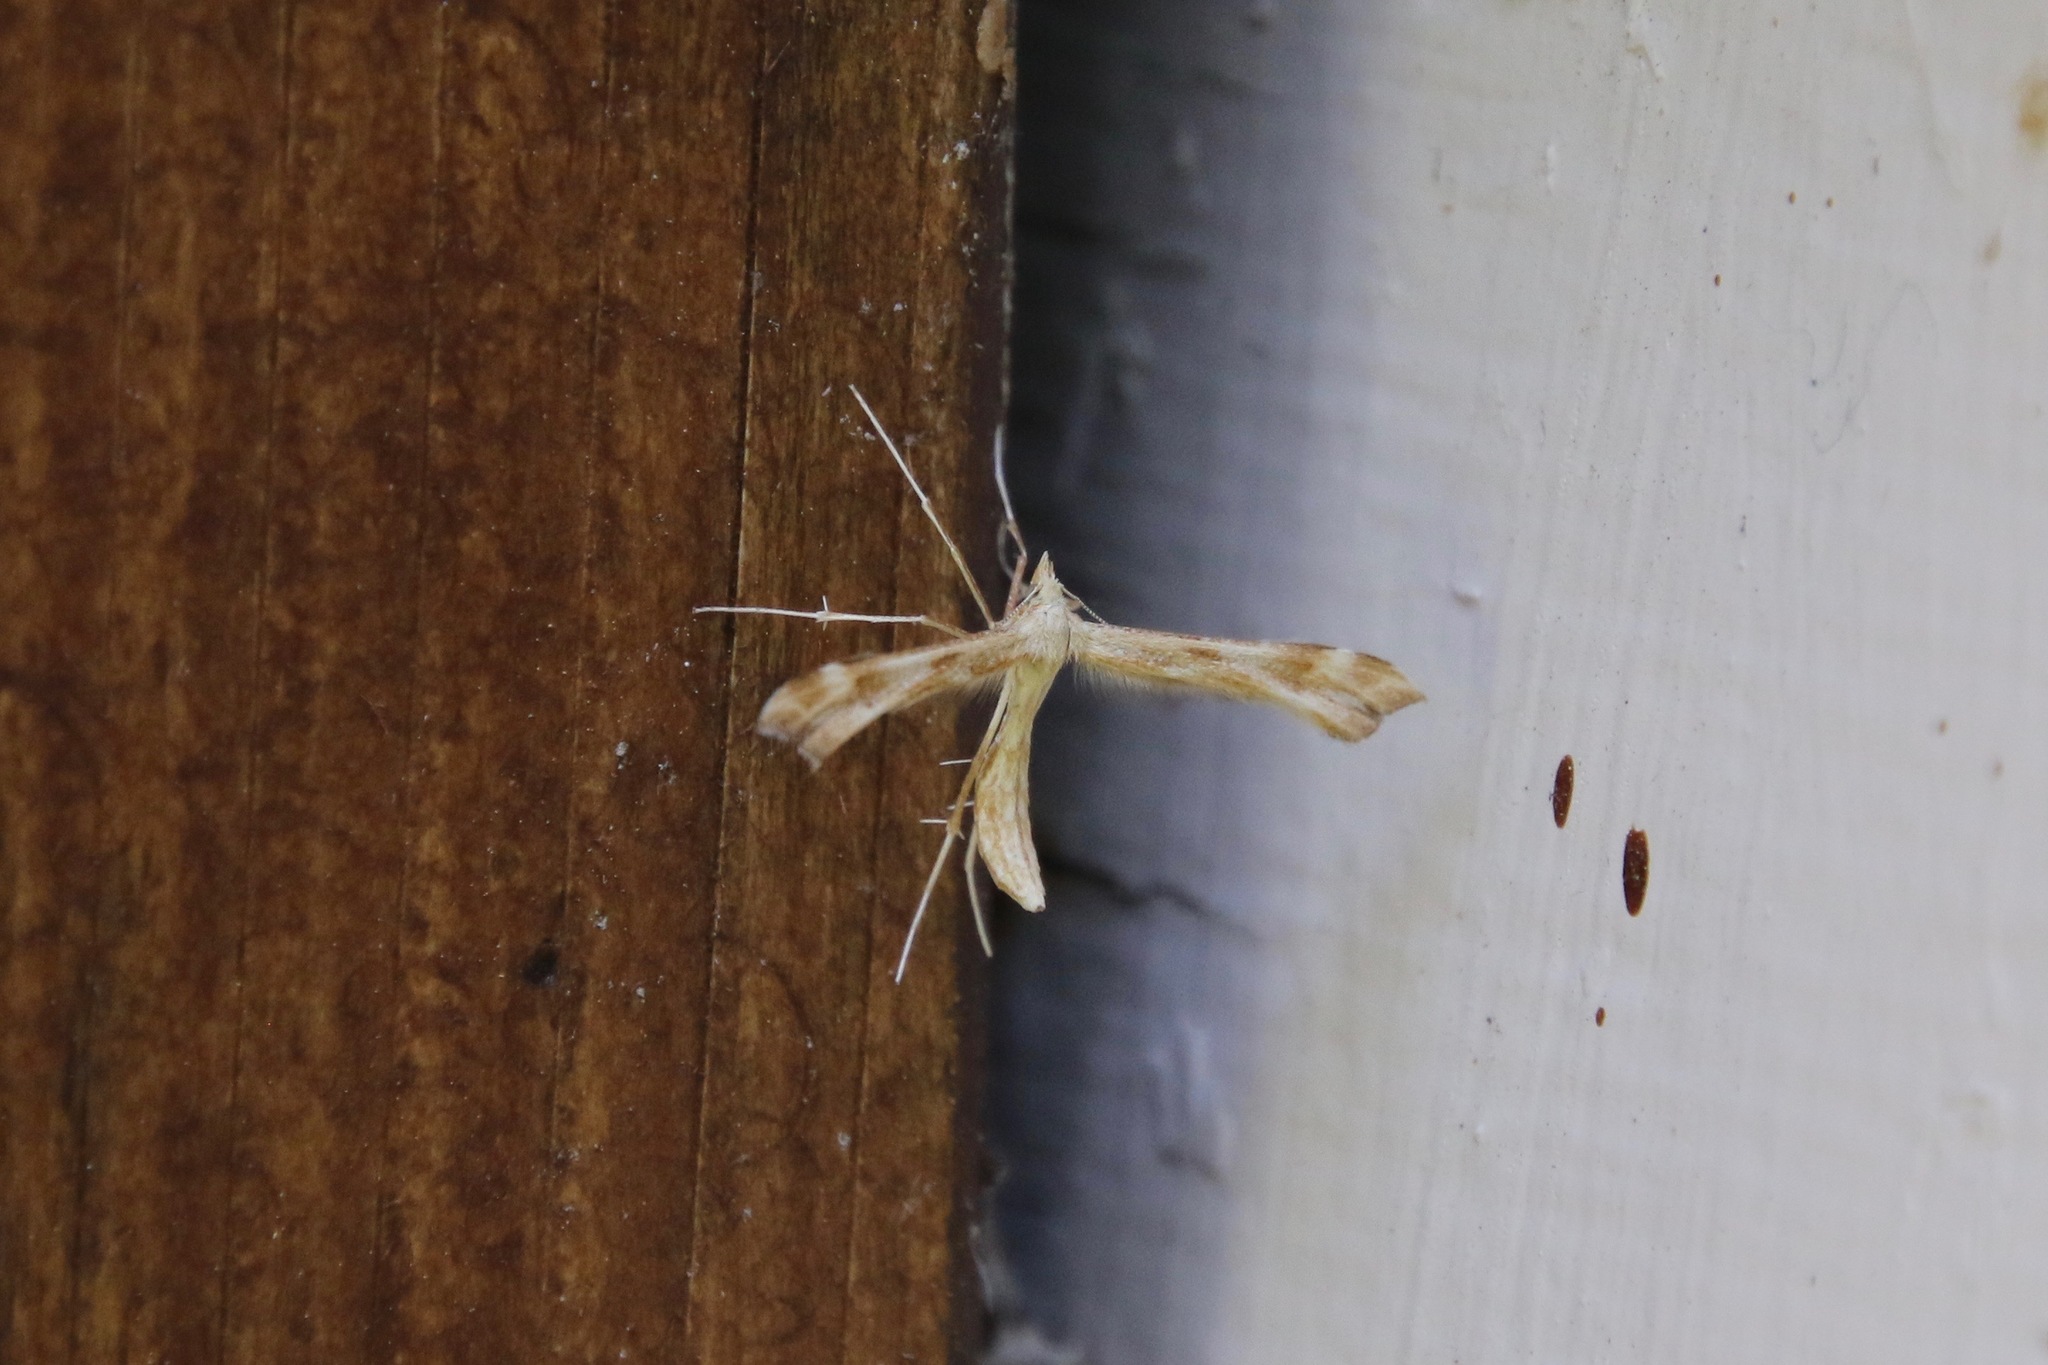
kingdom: Animalia
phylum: Arthropoda
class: Insecta
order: Lepidoptera
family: Pterophoridae
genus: Gillmeria
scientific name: Gillmeria pallidactyla
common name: Yarrow plume
